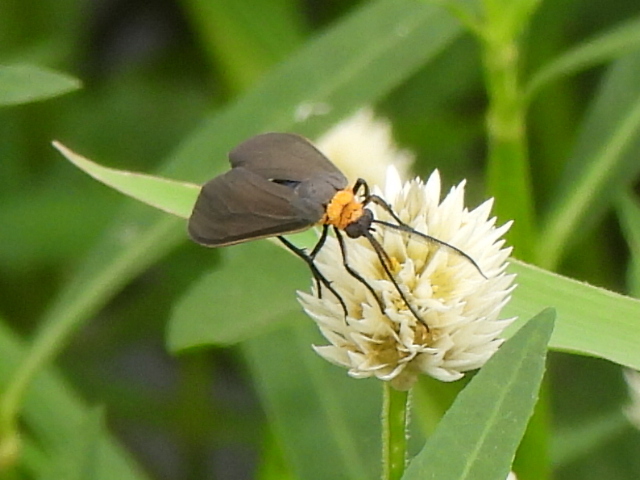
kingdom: Animalia
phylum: Arthropoda
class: Insecta
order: Lepidoptera
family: Erebidae
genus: Cisseps
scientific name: Cisseps fulvicollis
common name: Yellow-collared scape moth
